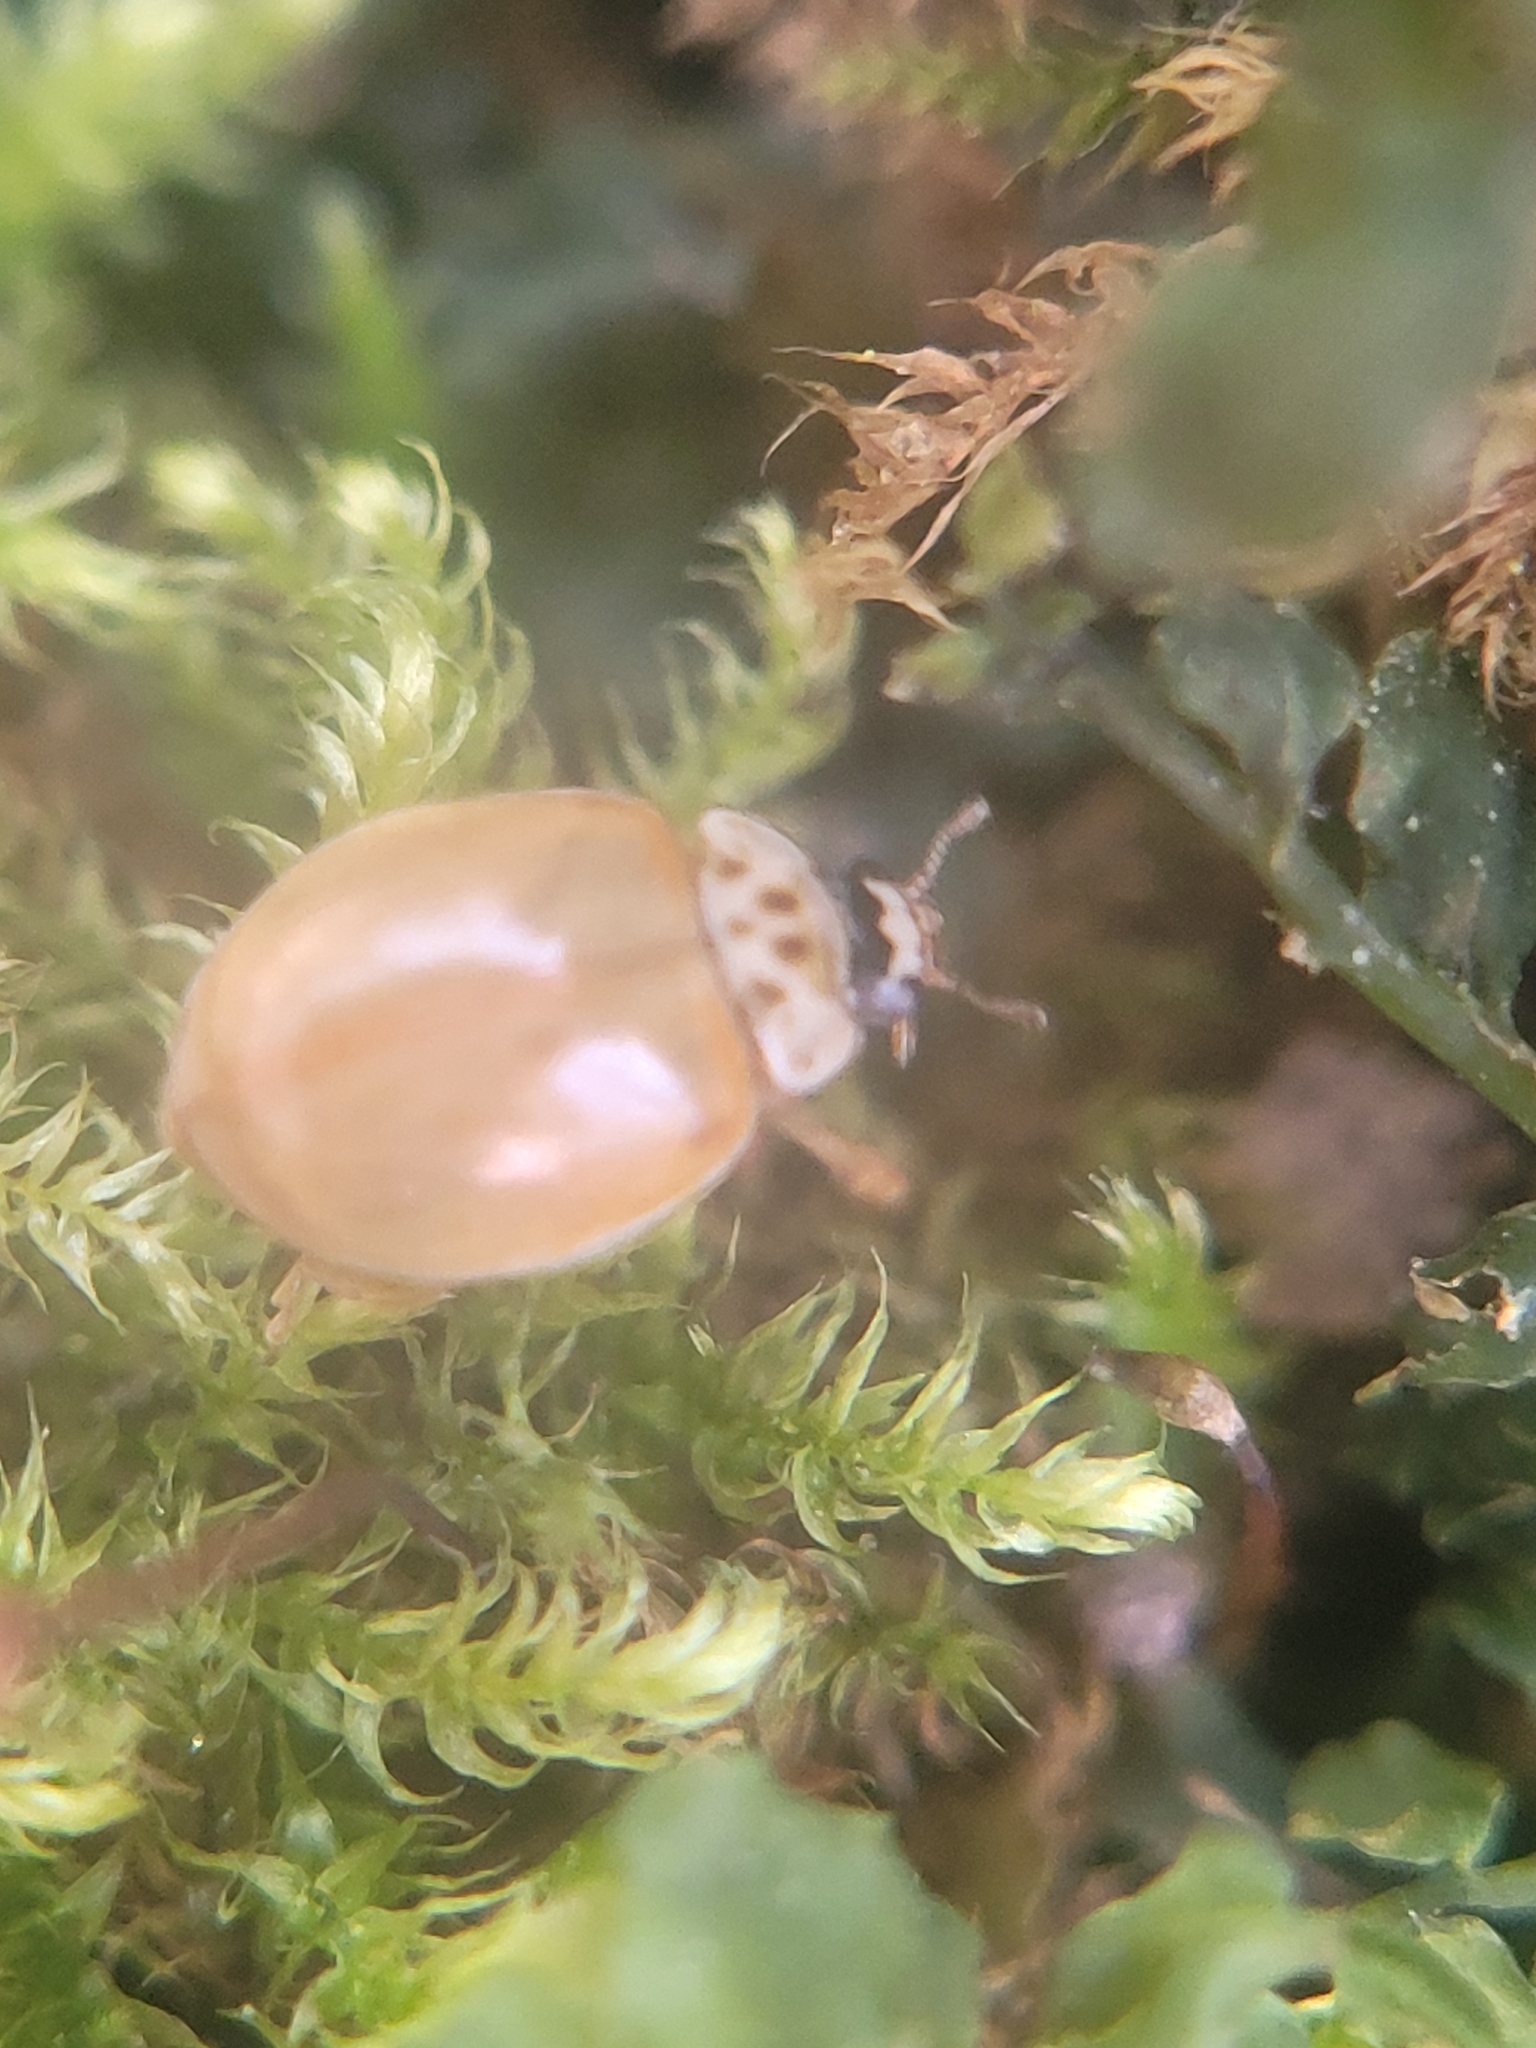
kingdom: Animalia
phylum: Arthropoda
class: Insecta
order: Coleoptera
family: Coccinellidae
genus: Adalia
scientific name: Adalia decempunctata
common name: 10-spot ladybird
